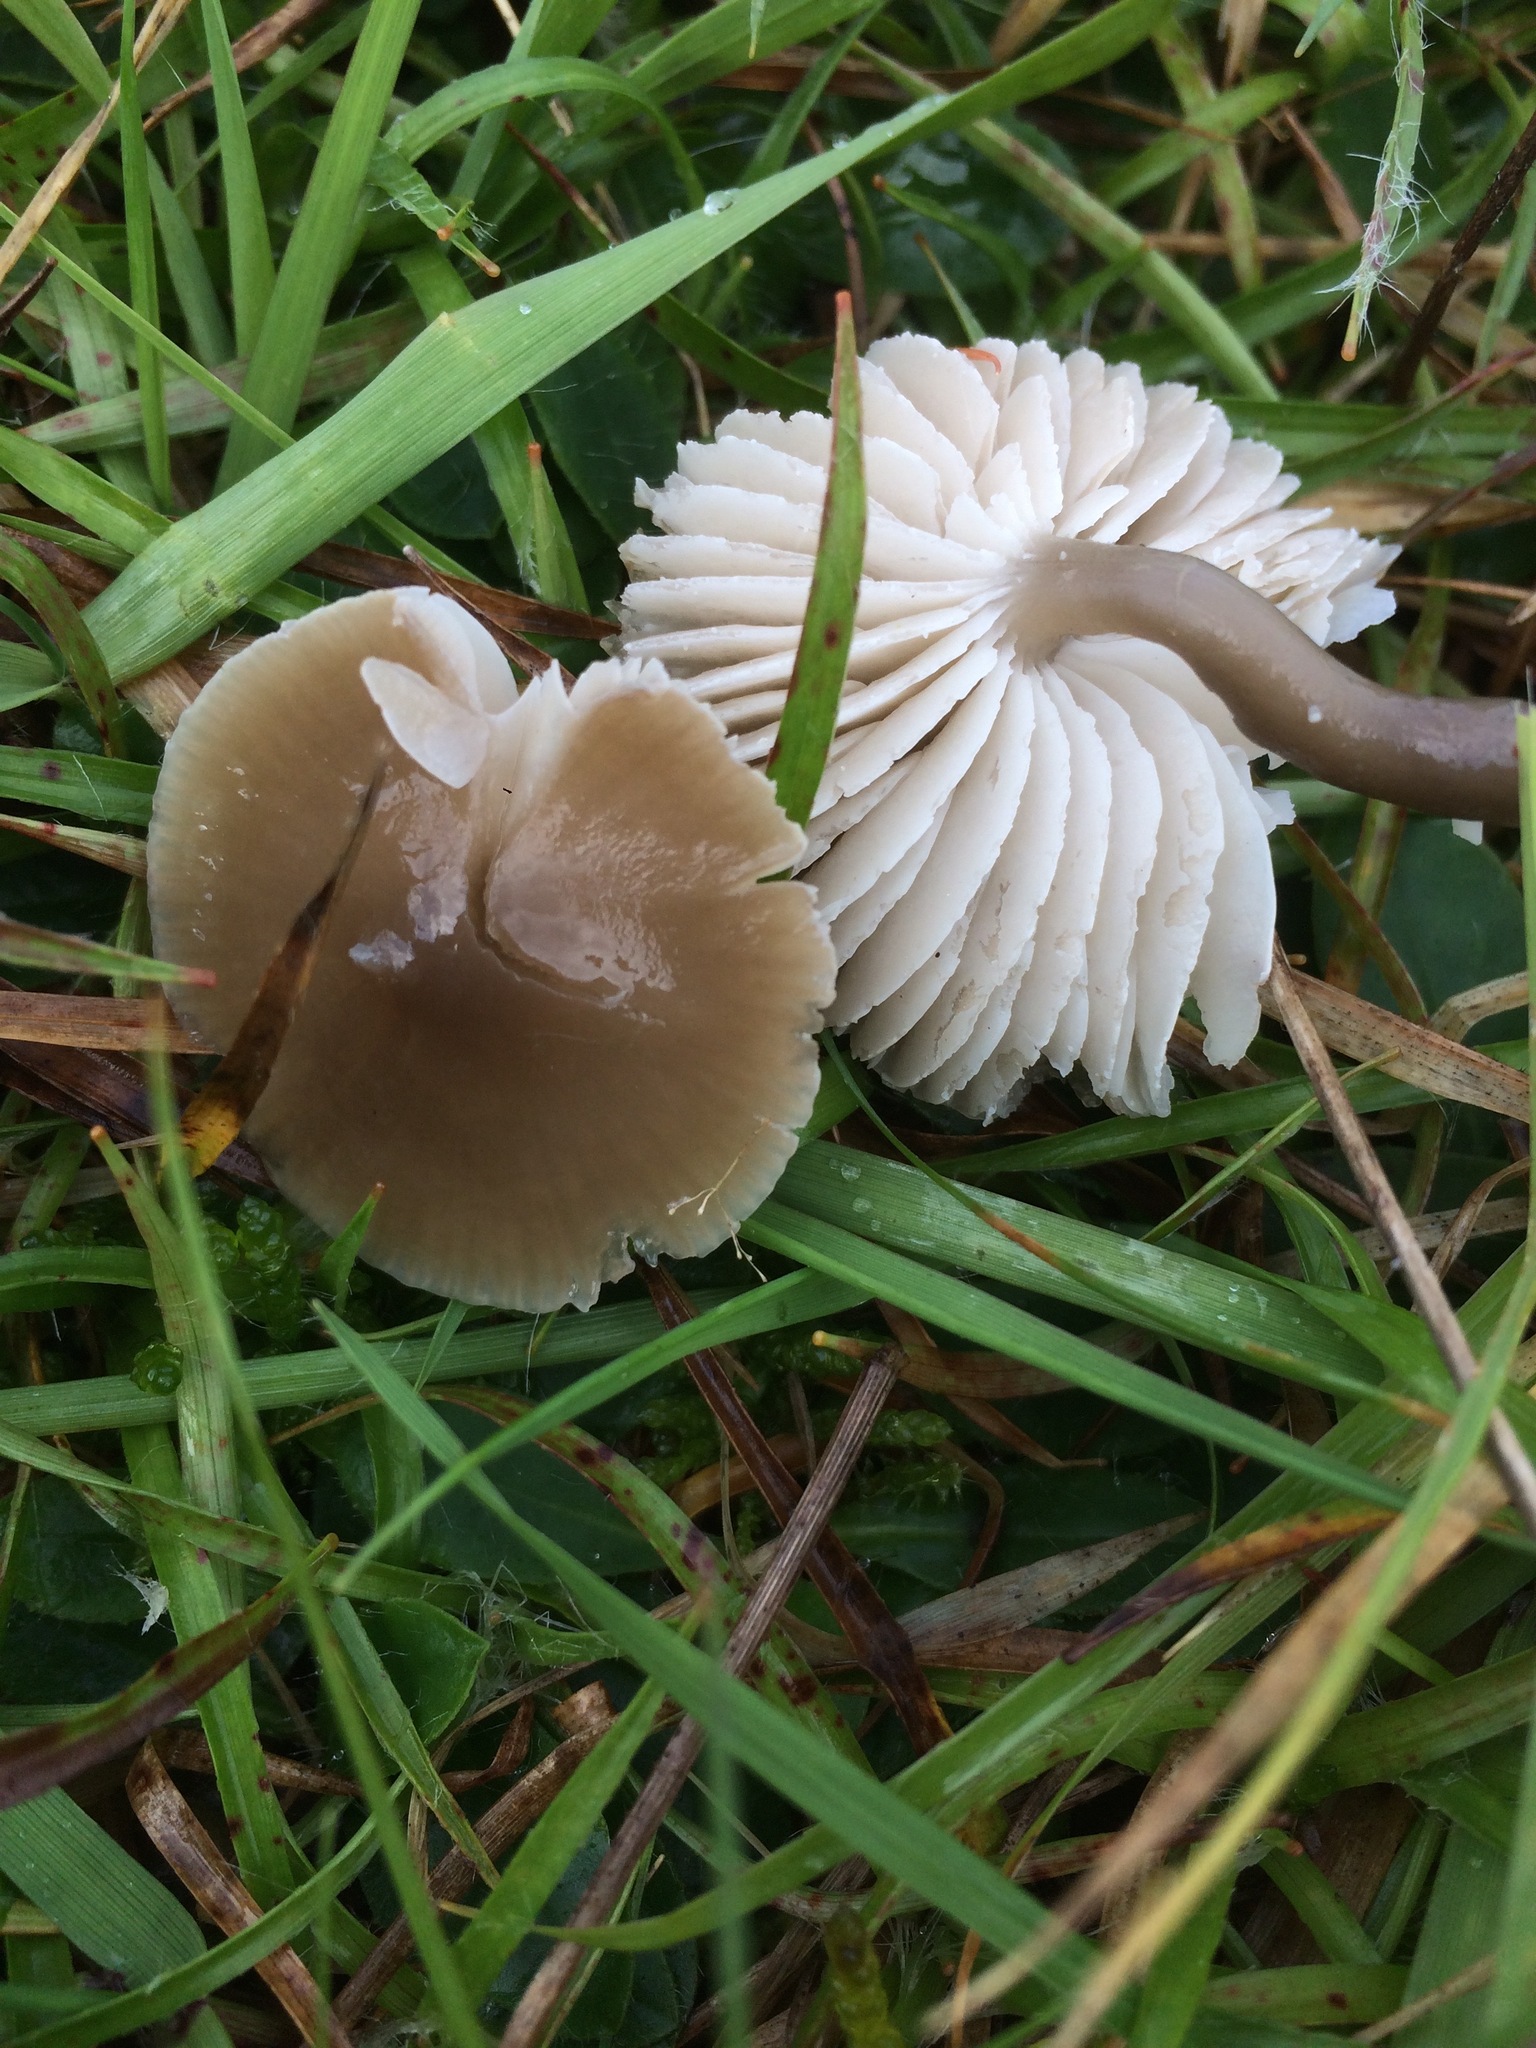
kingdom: Fungi
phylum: Basidiomycota
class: Agaricomycetes
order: Agaricales
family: Hygrophoraceae
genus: Gliophorus
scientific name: Gliophorus irrigatus
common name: Slimy waxcap
